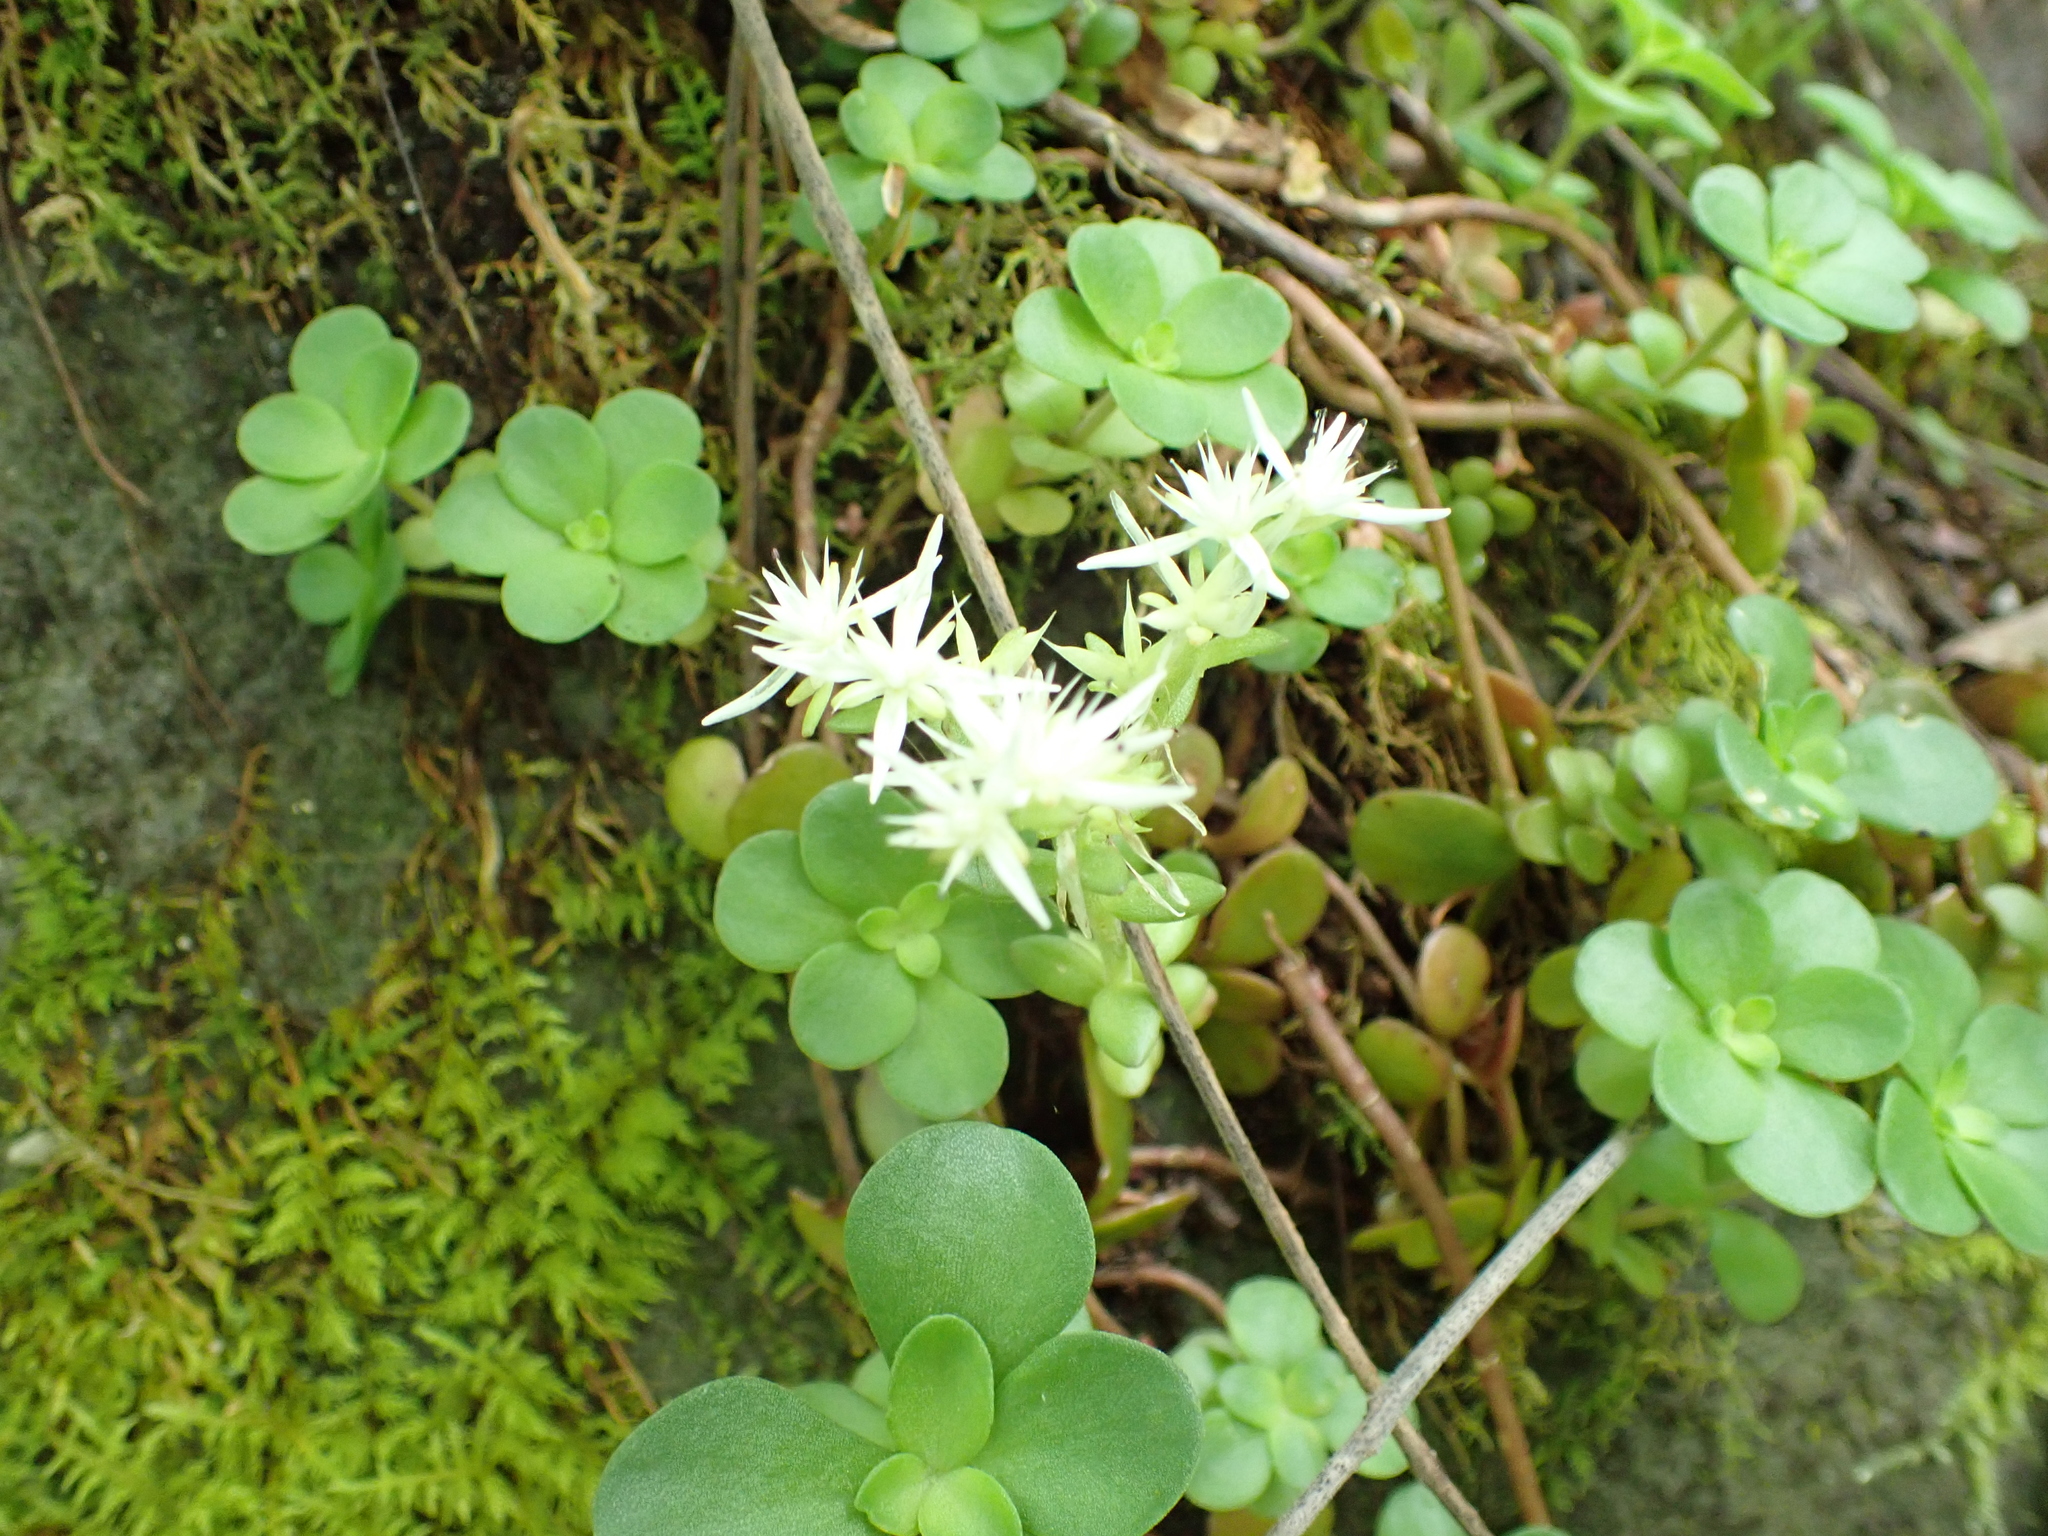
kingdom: Plantae
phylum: Tracheophyta
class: Magnoliopsida
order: Saxifragales
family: Crassulaceae
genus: Sedum
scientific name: Sedum ternatum
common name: Wild stonecrop
